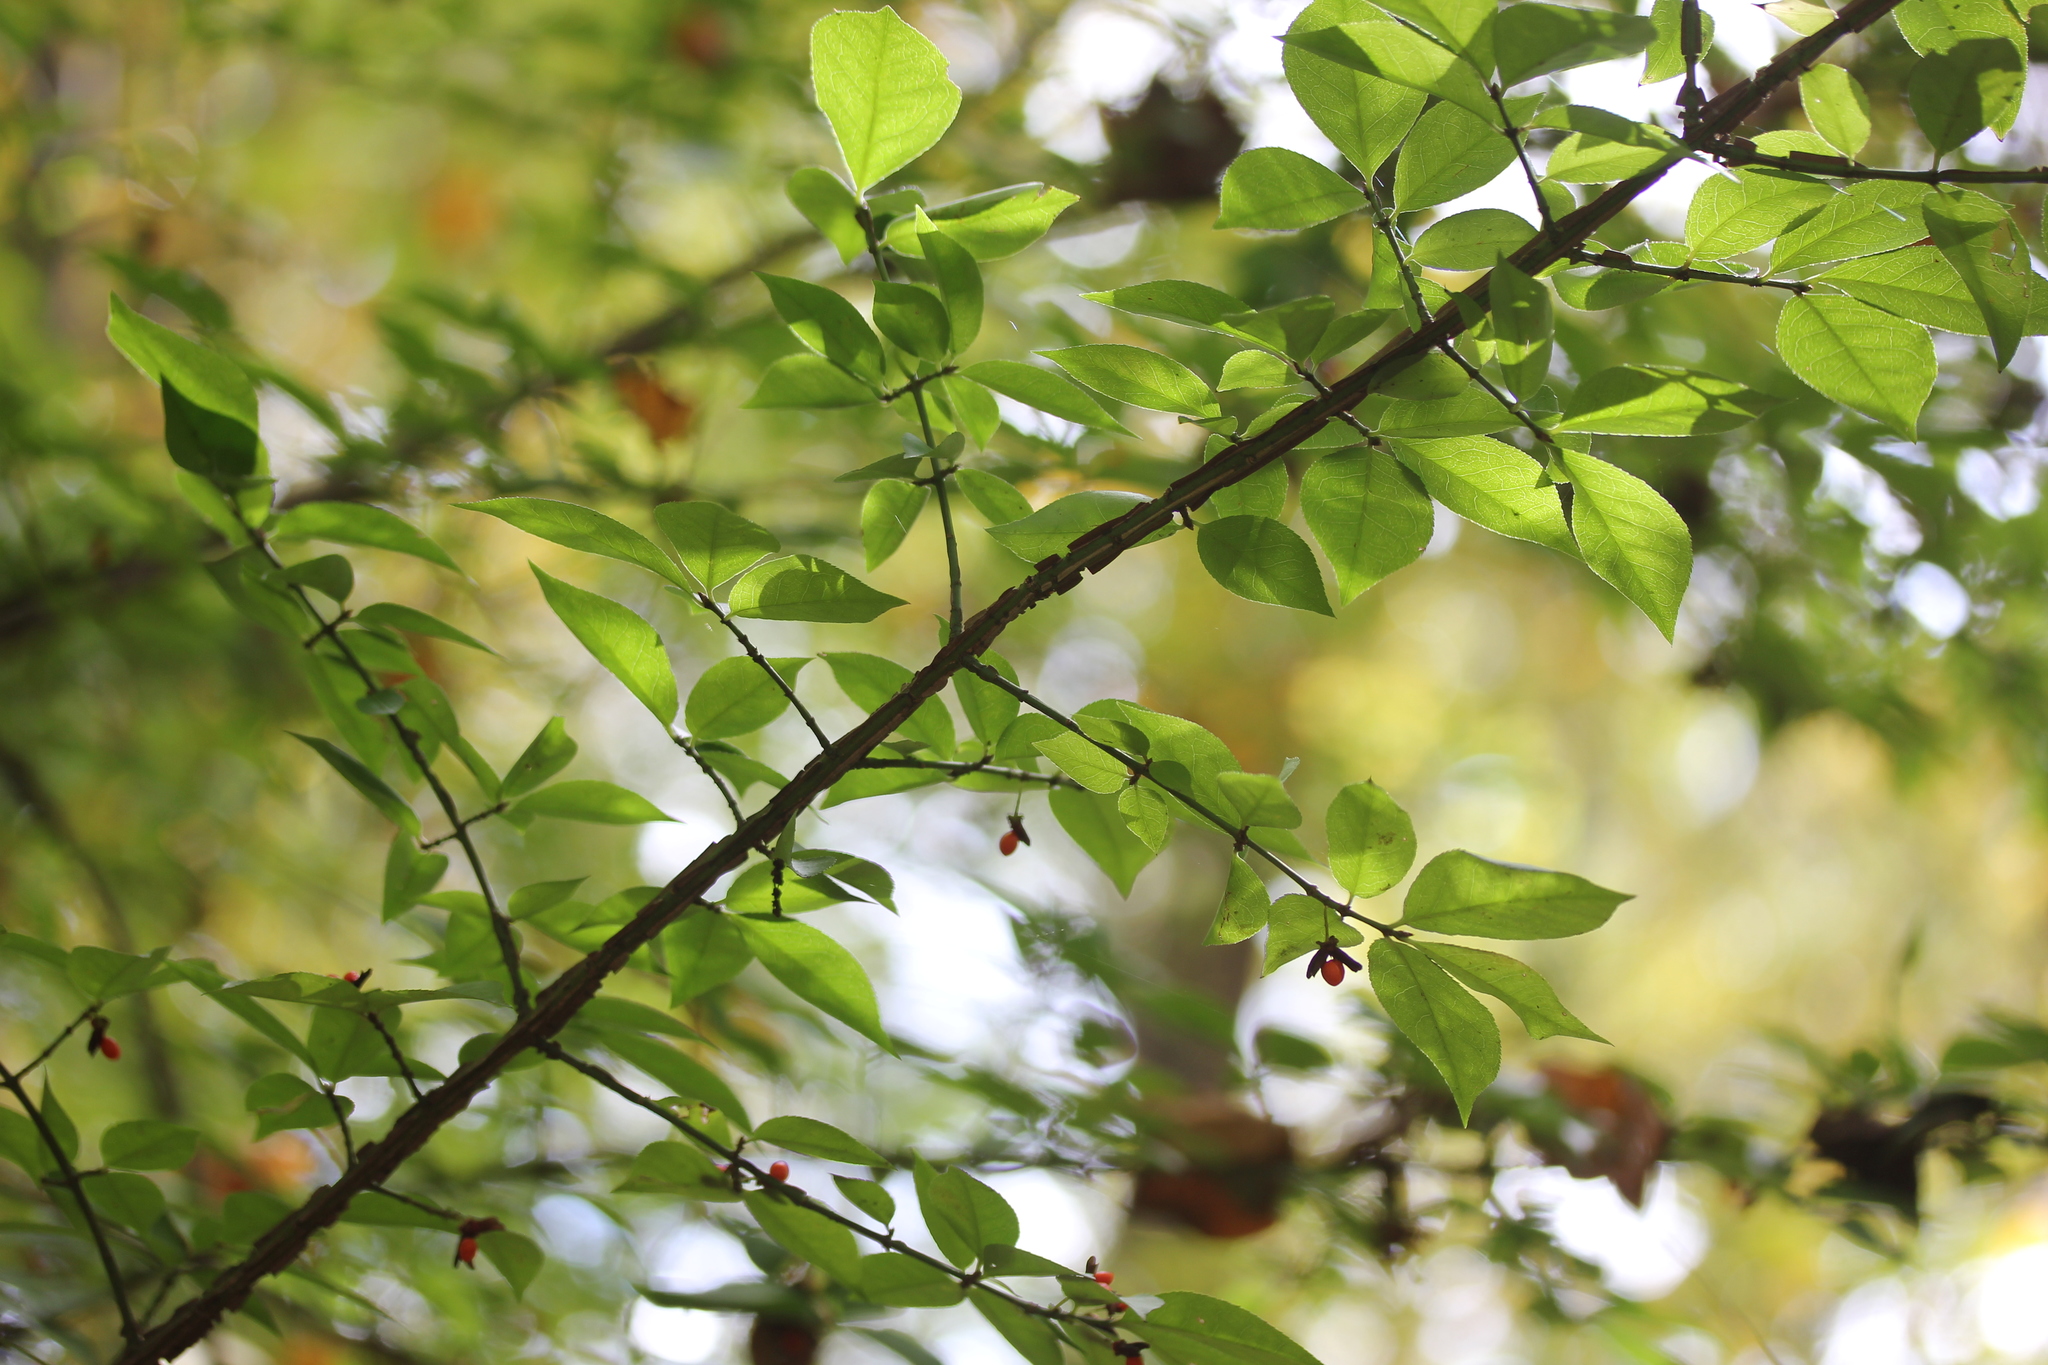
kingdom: Plantae
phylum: Tracheophyta
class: Magnoliopsida
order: Celastrales
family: Celastraceae
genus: Euonymus
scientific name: Euonymus alatus
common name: Winged euonymus
